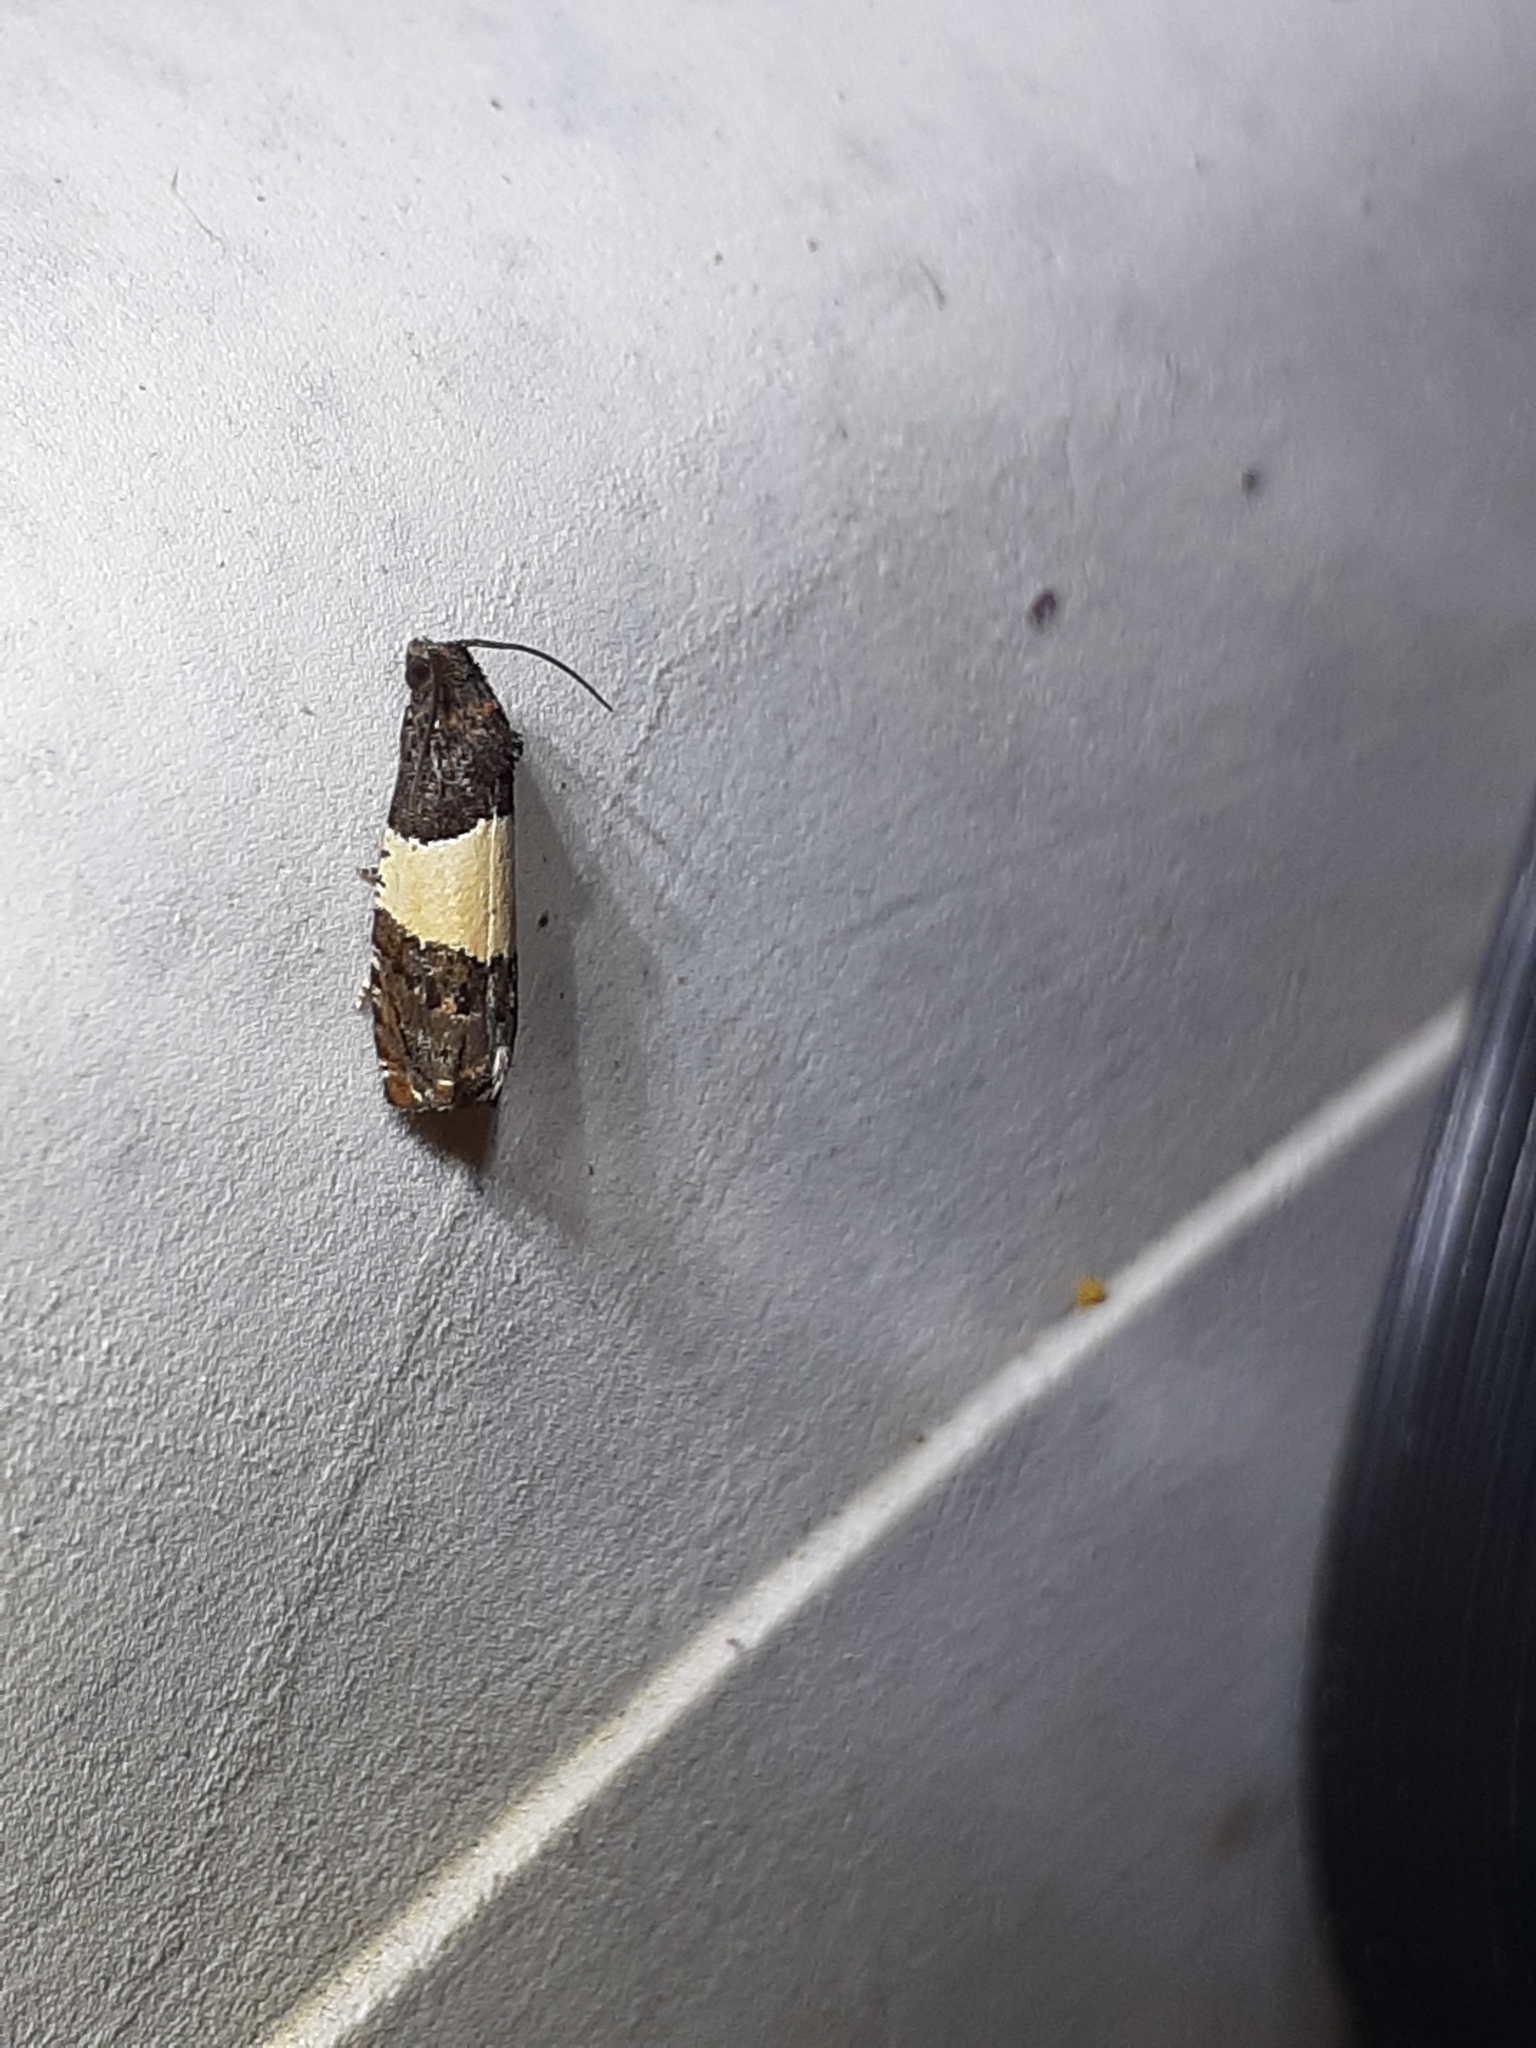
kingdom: Animalia
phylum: Arthropoda
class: Insecta
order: Lepidoptera
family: Tortricidae
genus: Epiblema
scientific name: Epiblema tripartitana
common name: Three-parted epiblema moth
